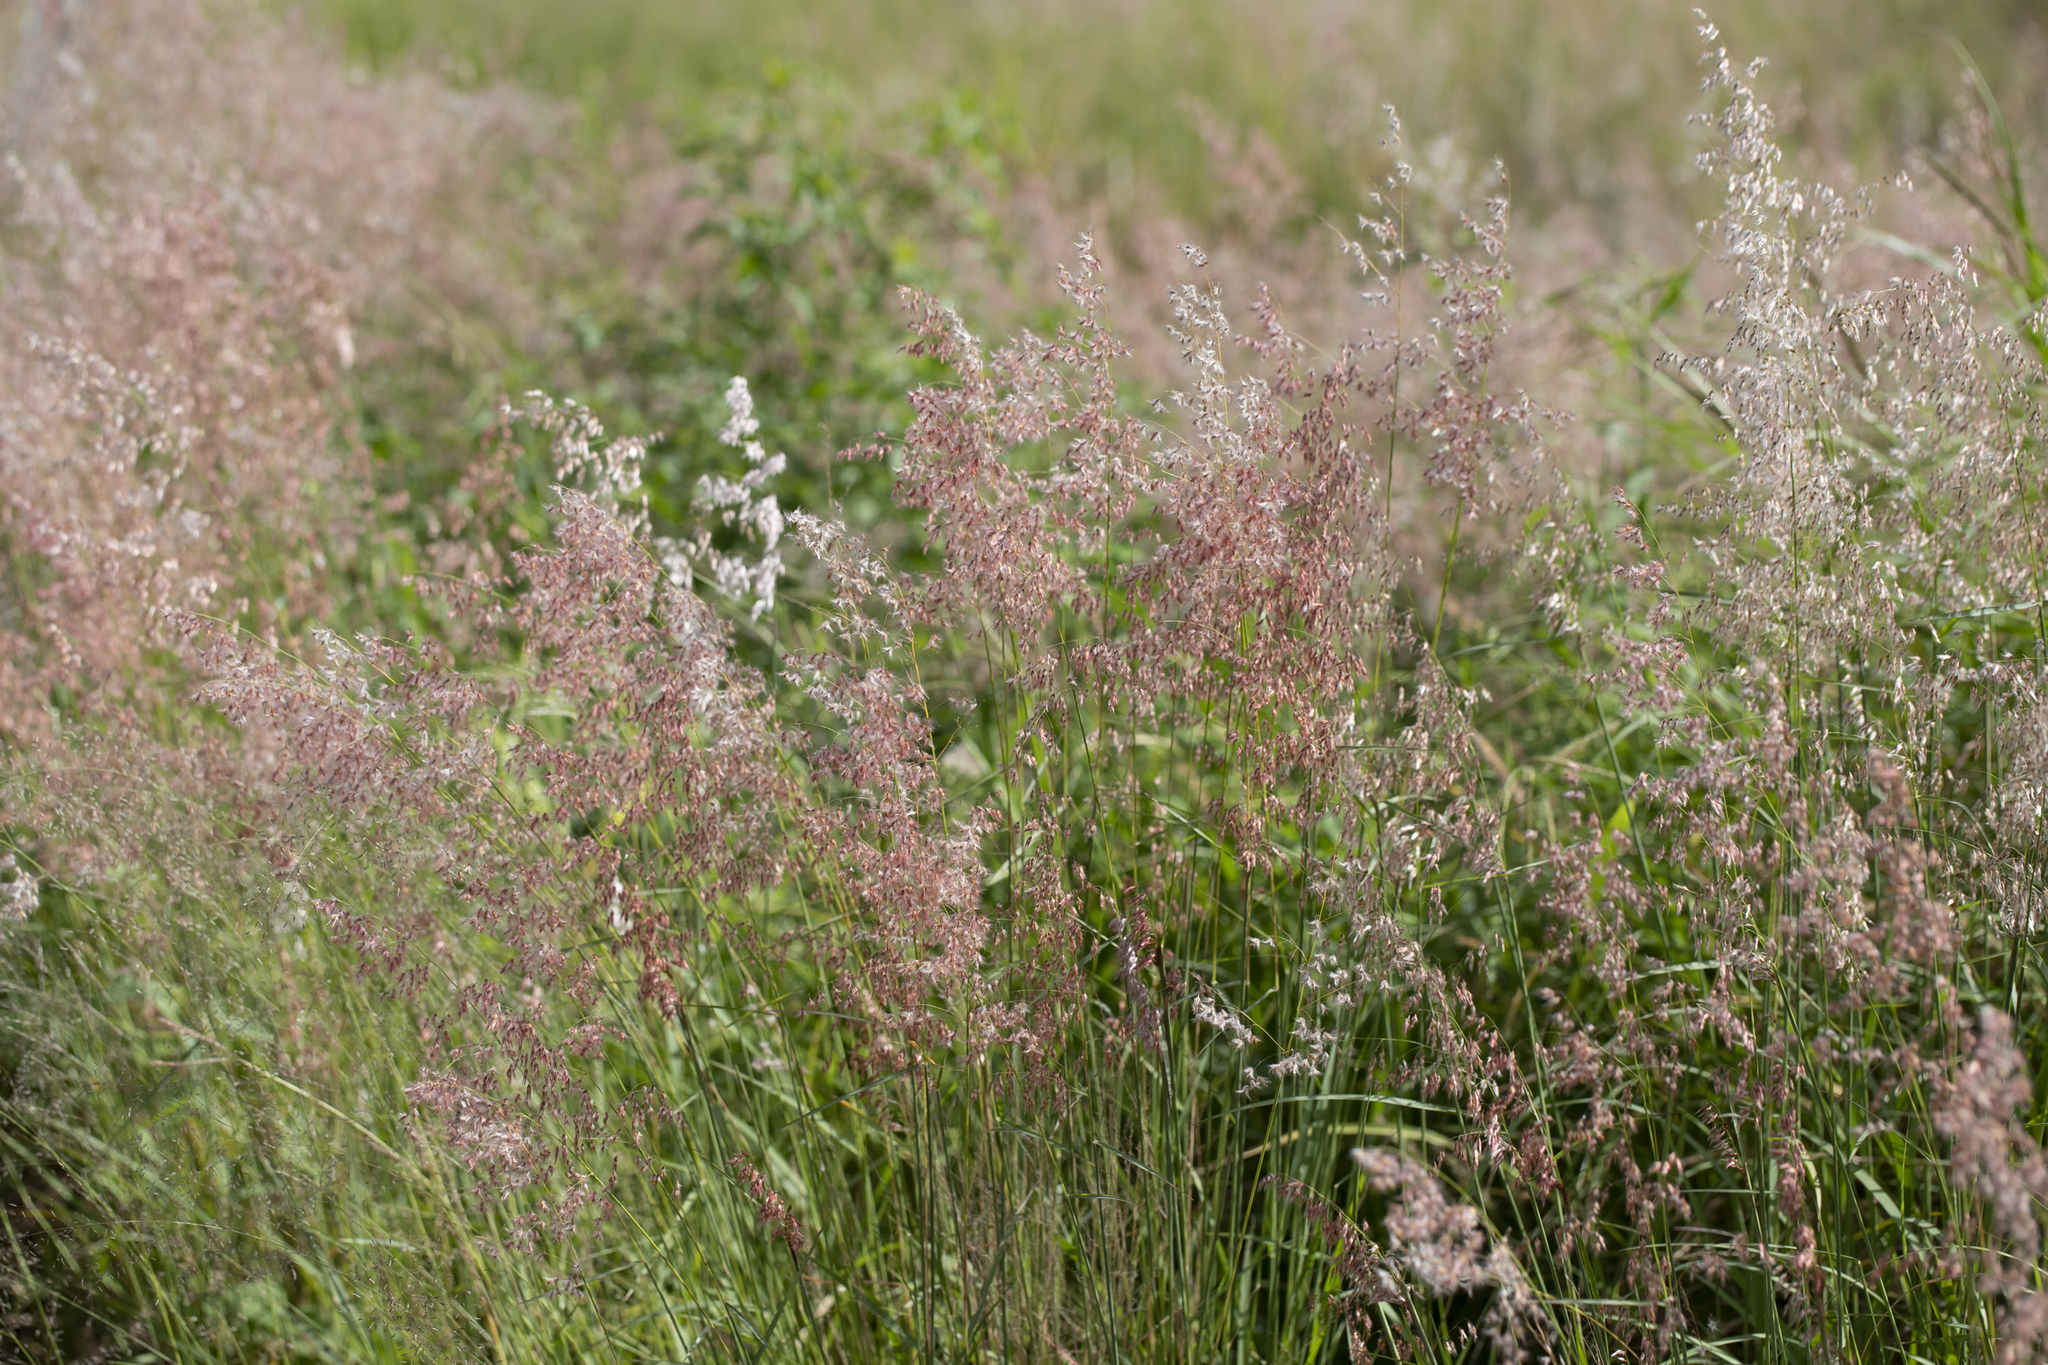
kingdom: Plantae
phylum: Tracheophyta
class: Liliopsida
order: Poales
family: Poaceae
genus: Melinis
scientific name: Melinis repens
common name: Rose natal grass
